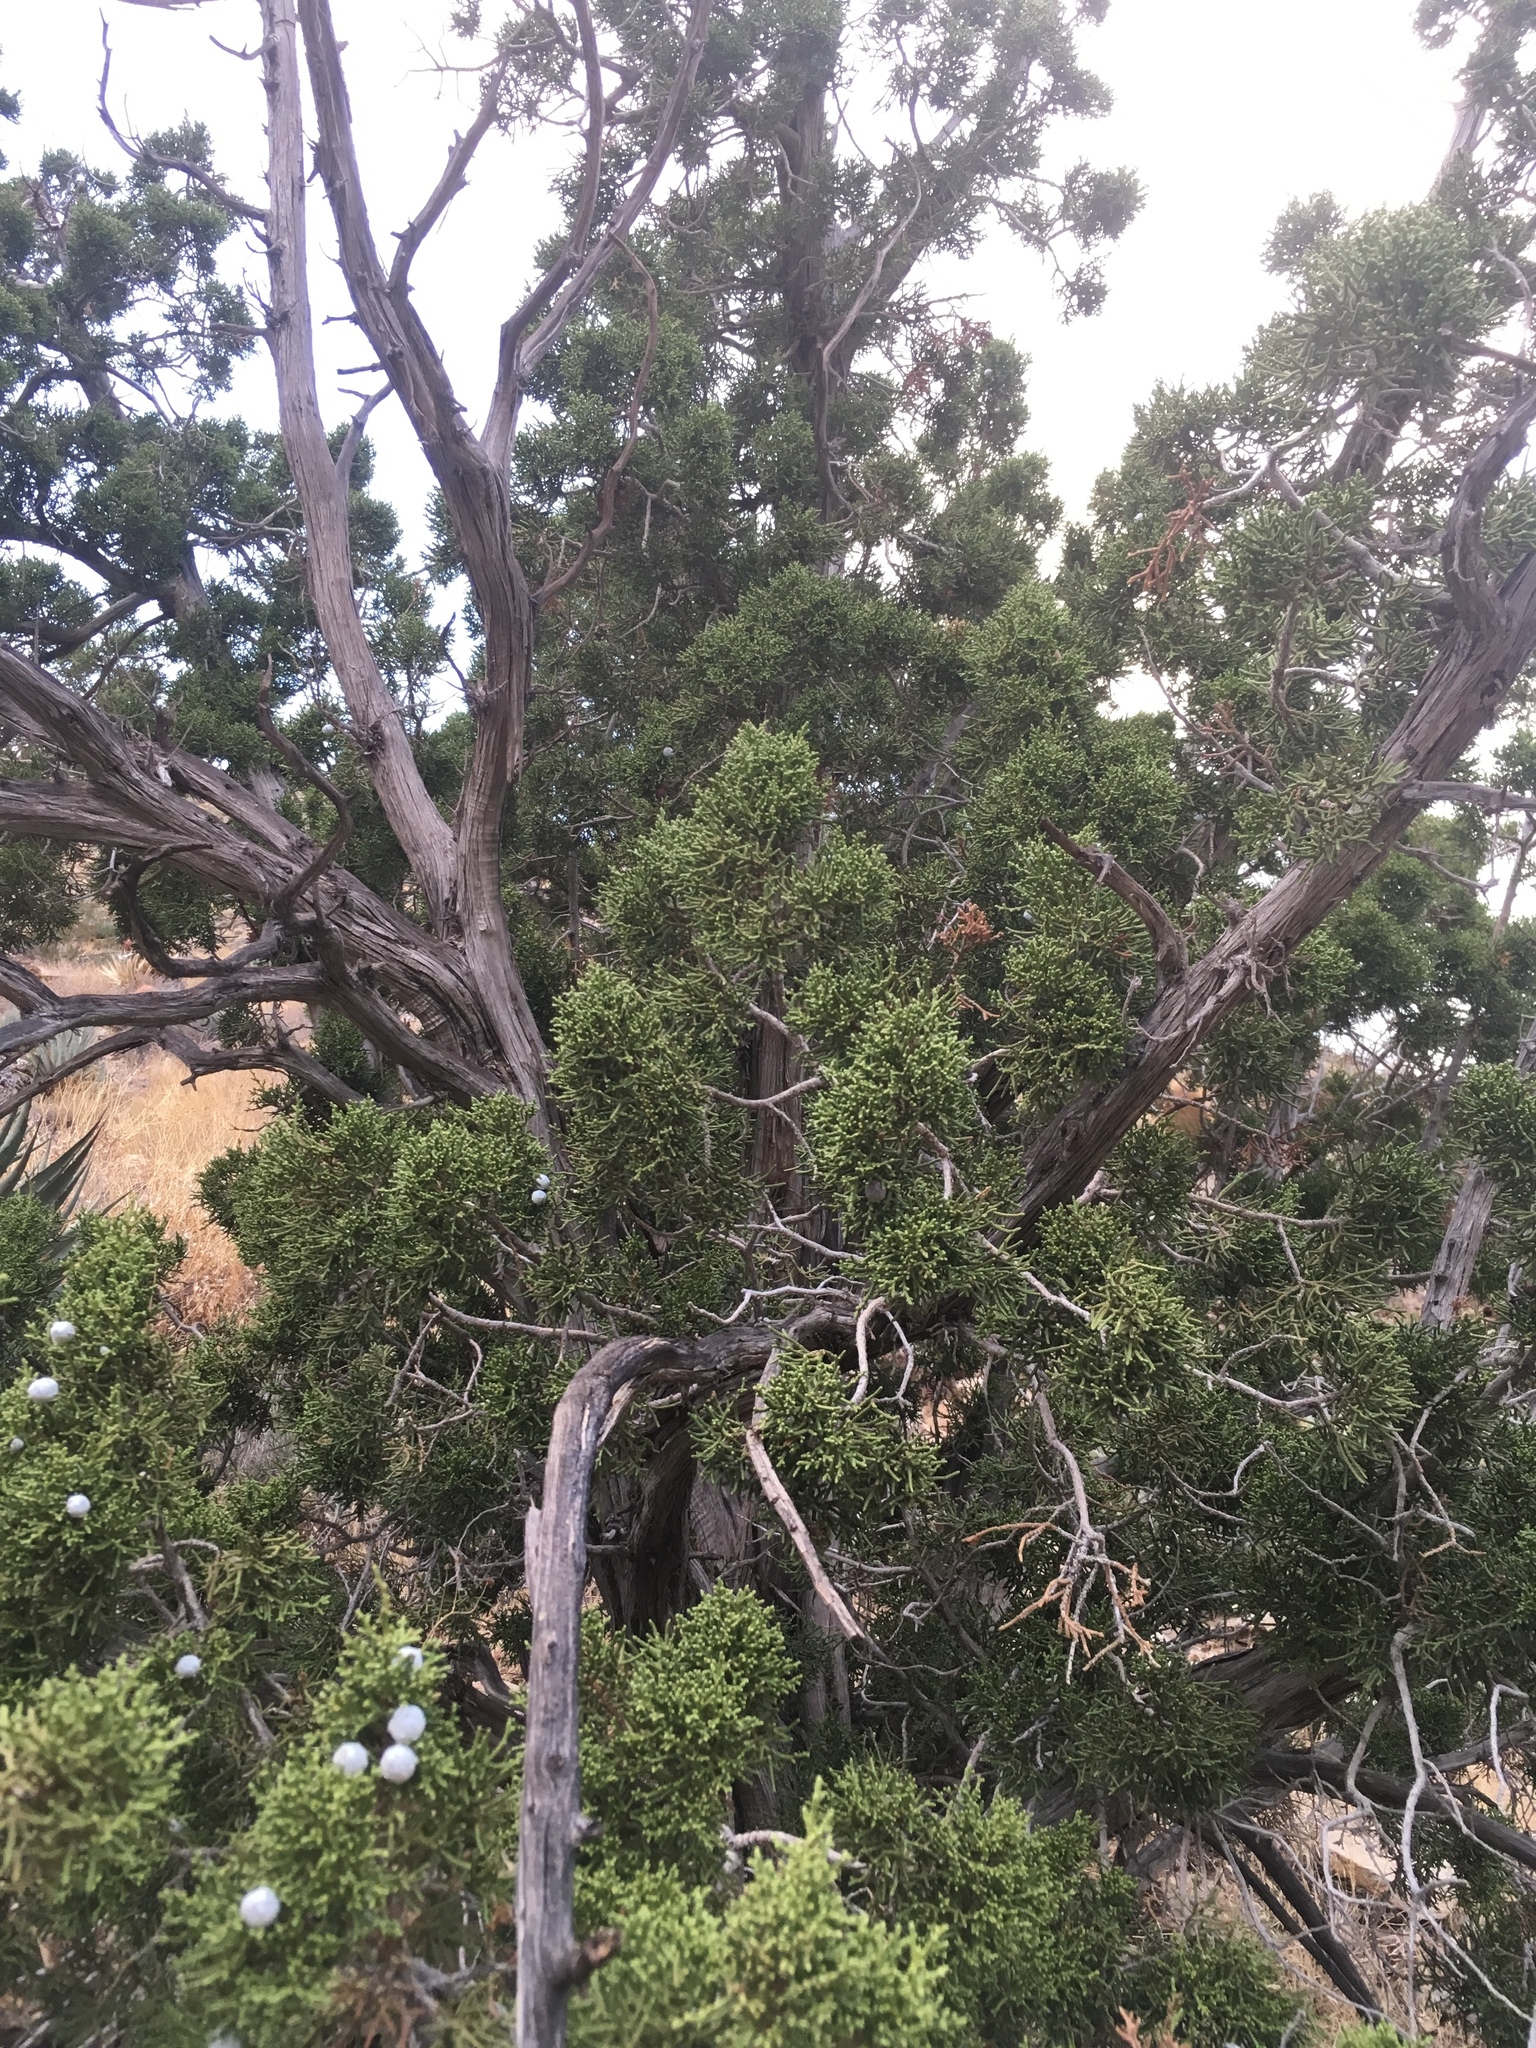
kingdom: Plantae
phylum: Tracheophyta
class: Pinopsida
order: Pinales
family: Cupressaceae
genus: Juniperus
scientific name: Juniperus californica
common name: California juniper
